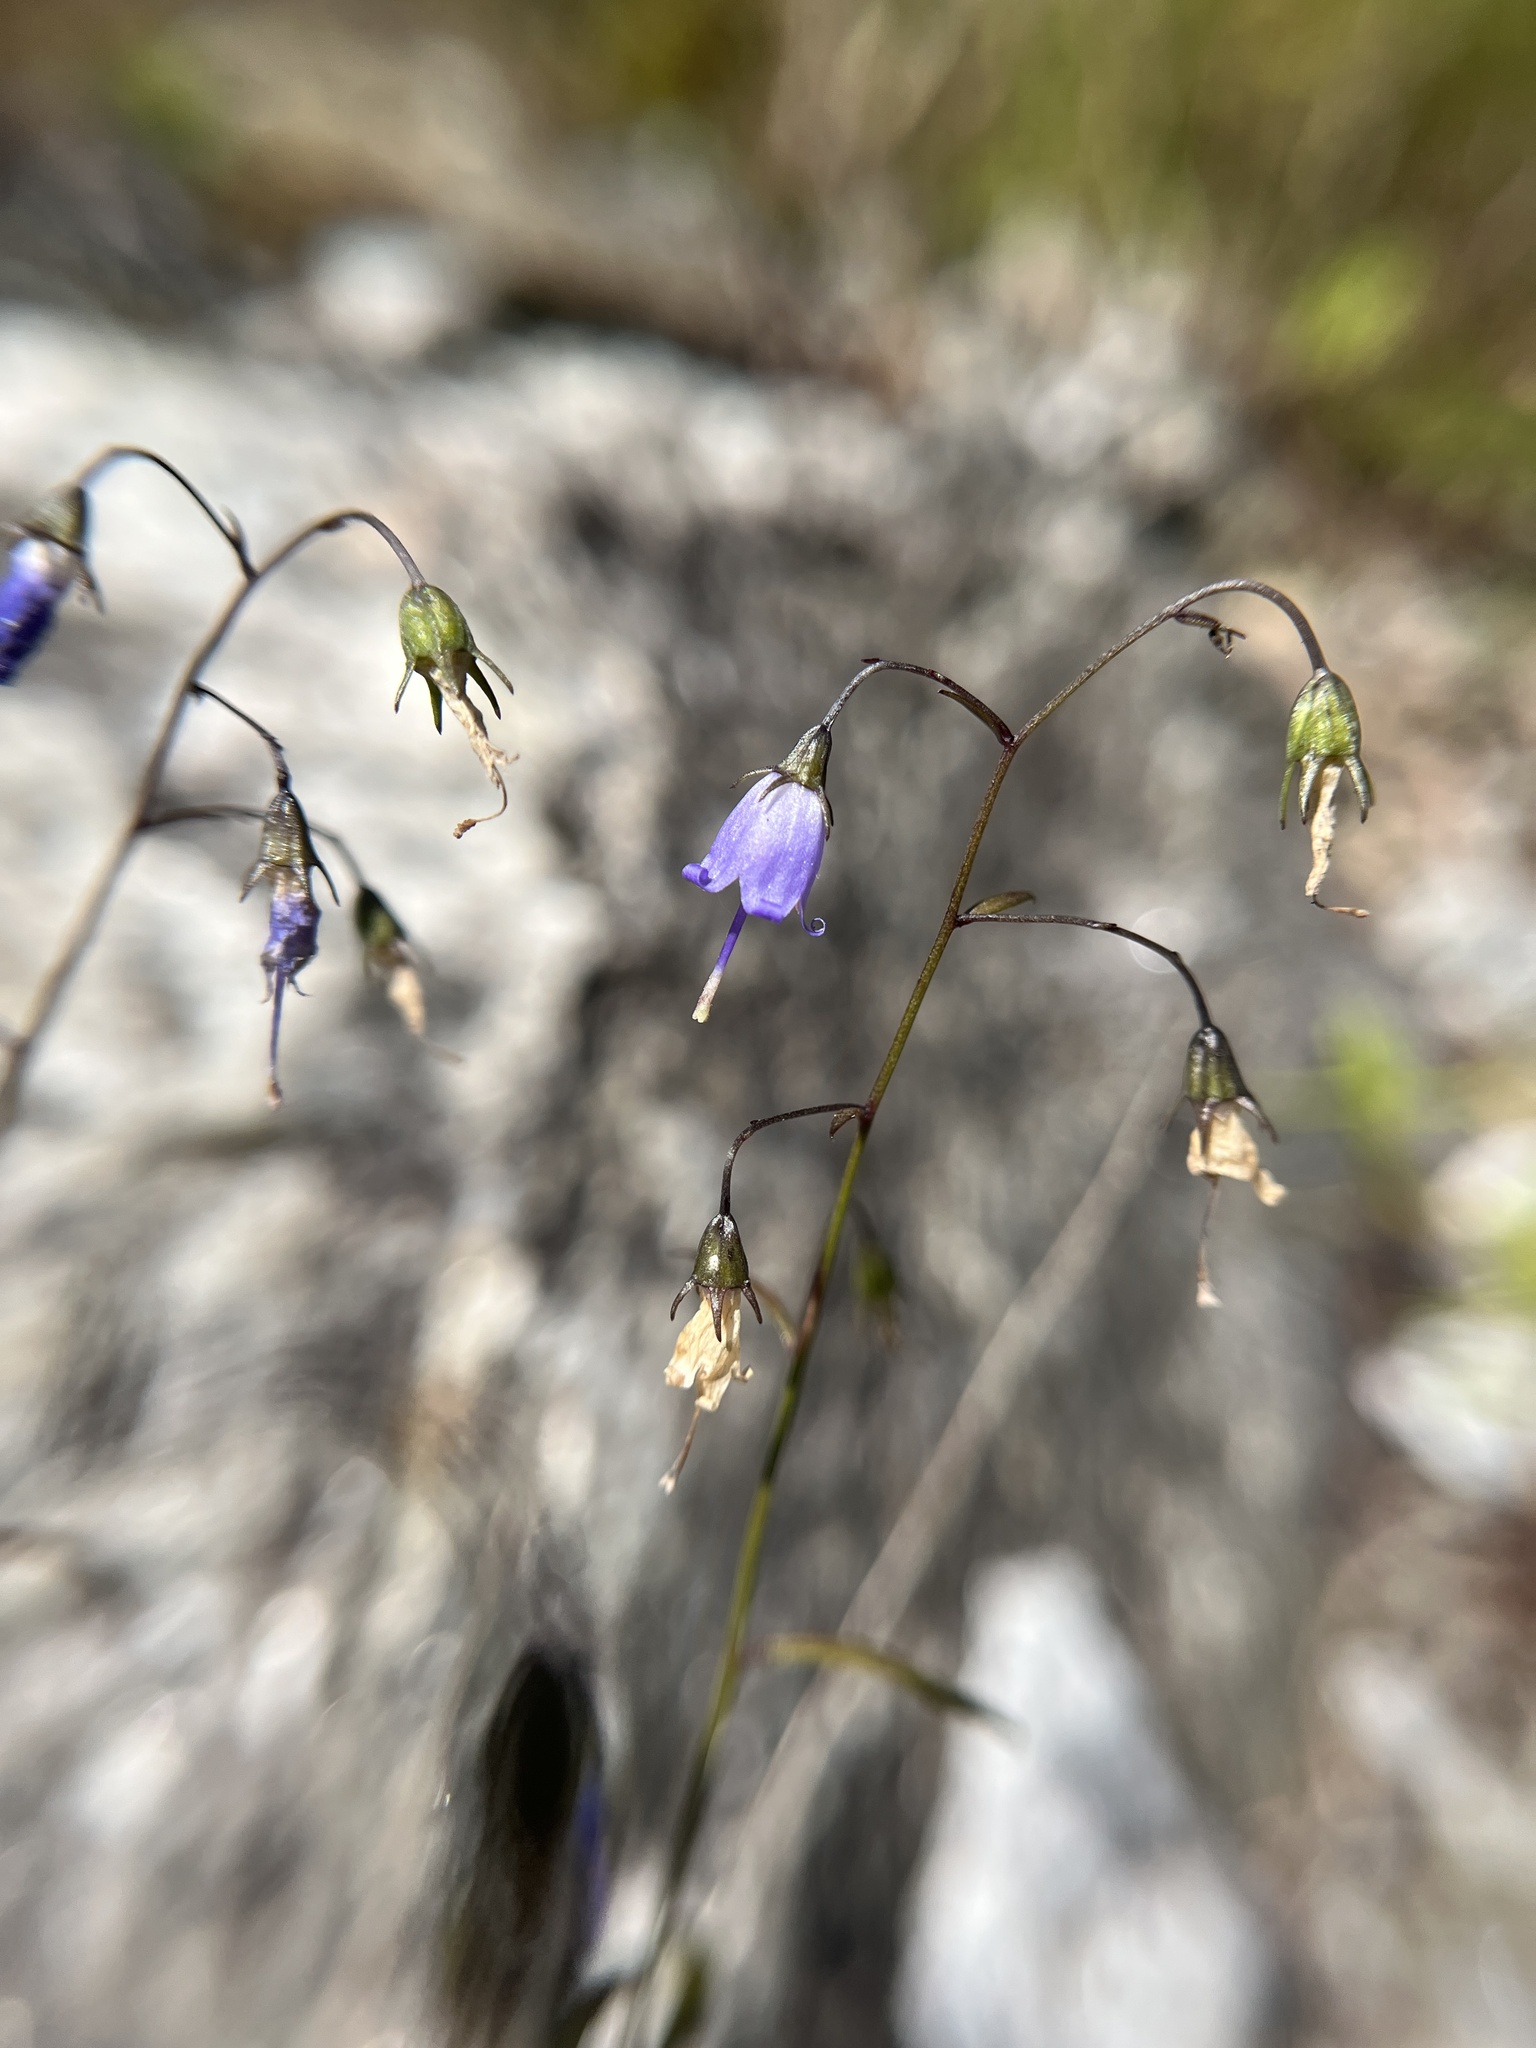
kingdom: Plantae
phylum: Tracheophyta
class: Magnoliopsida
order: Asterales
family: Campanulaceae
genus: Campanula
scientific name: Campanula divaricata
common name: Appalachian bellflower
